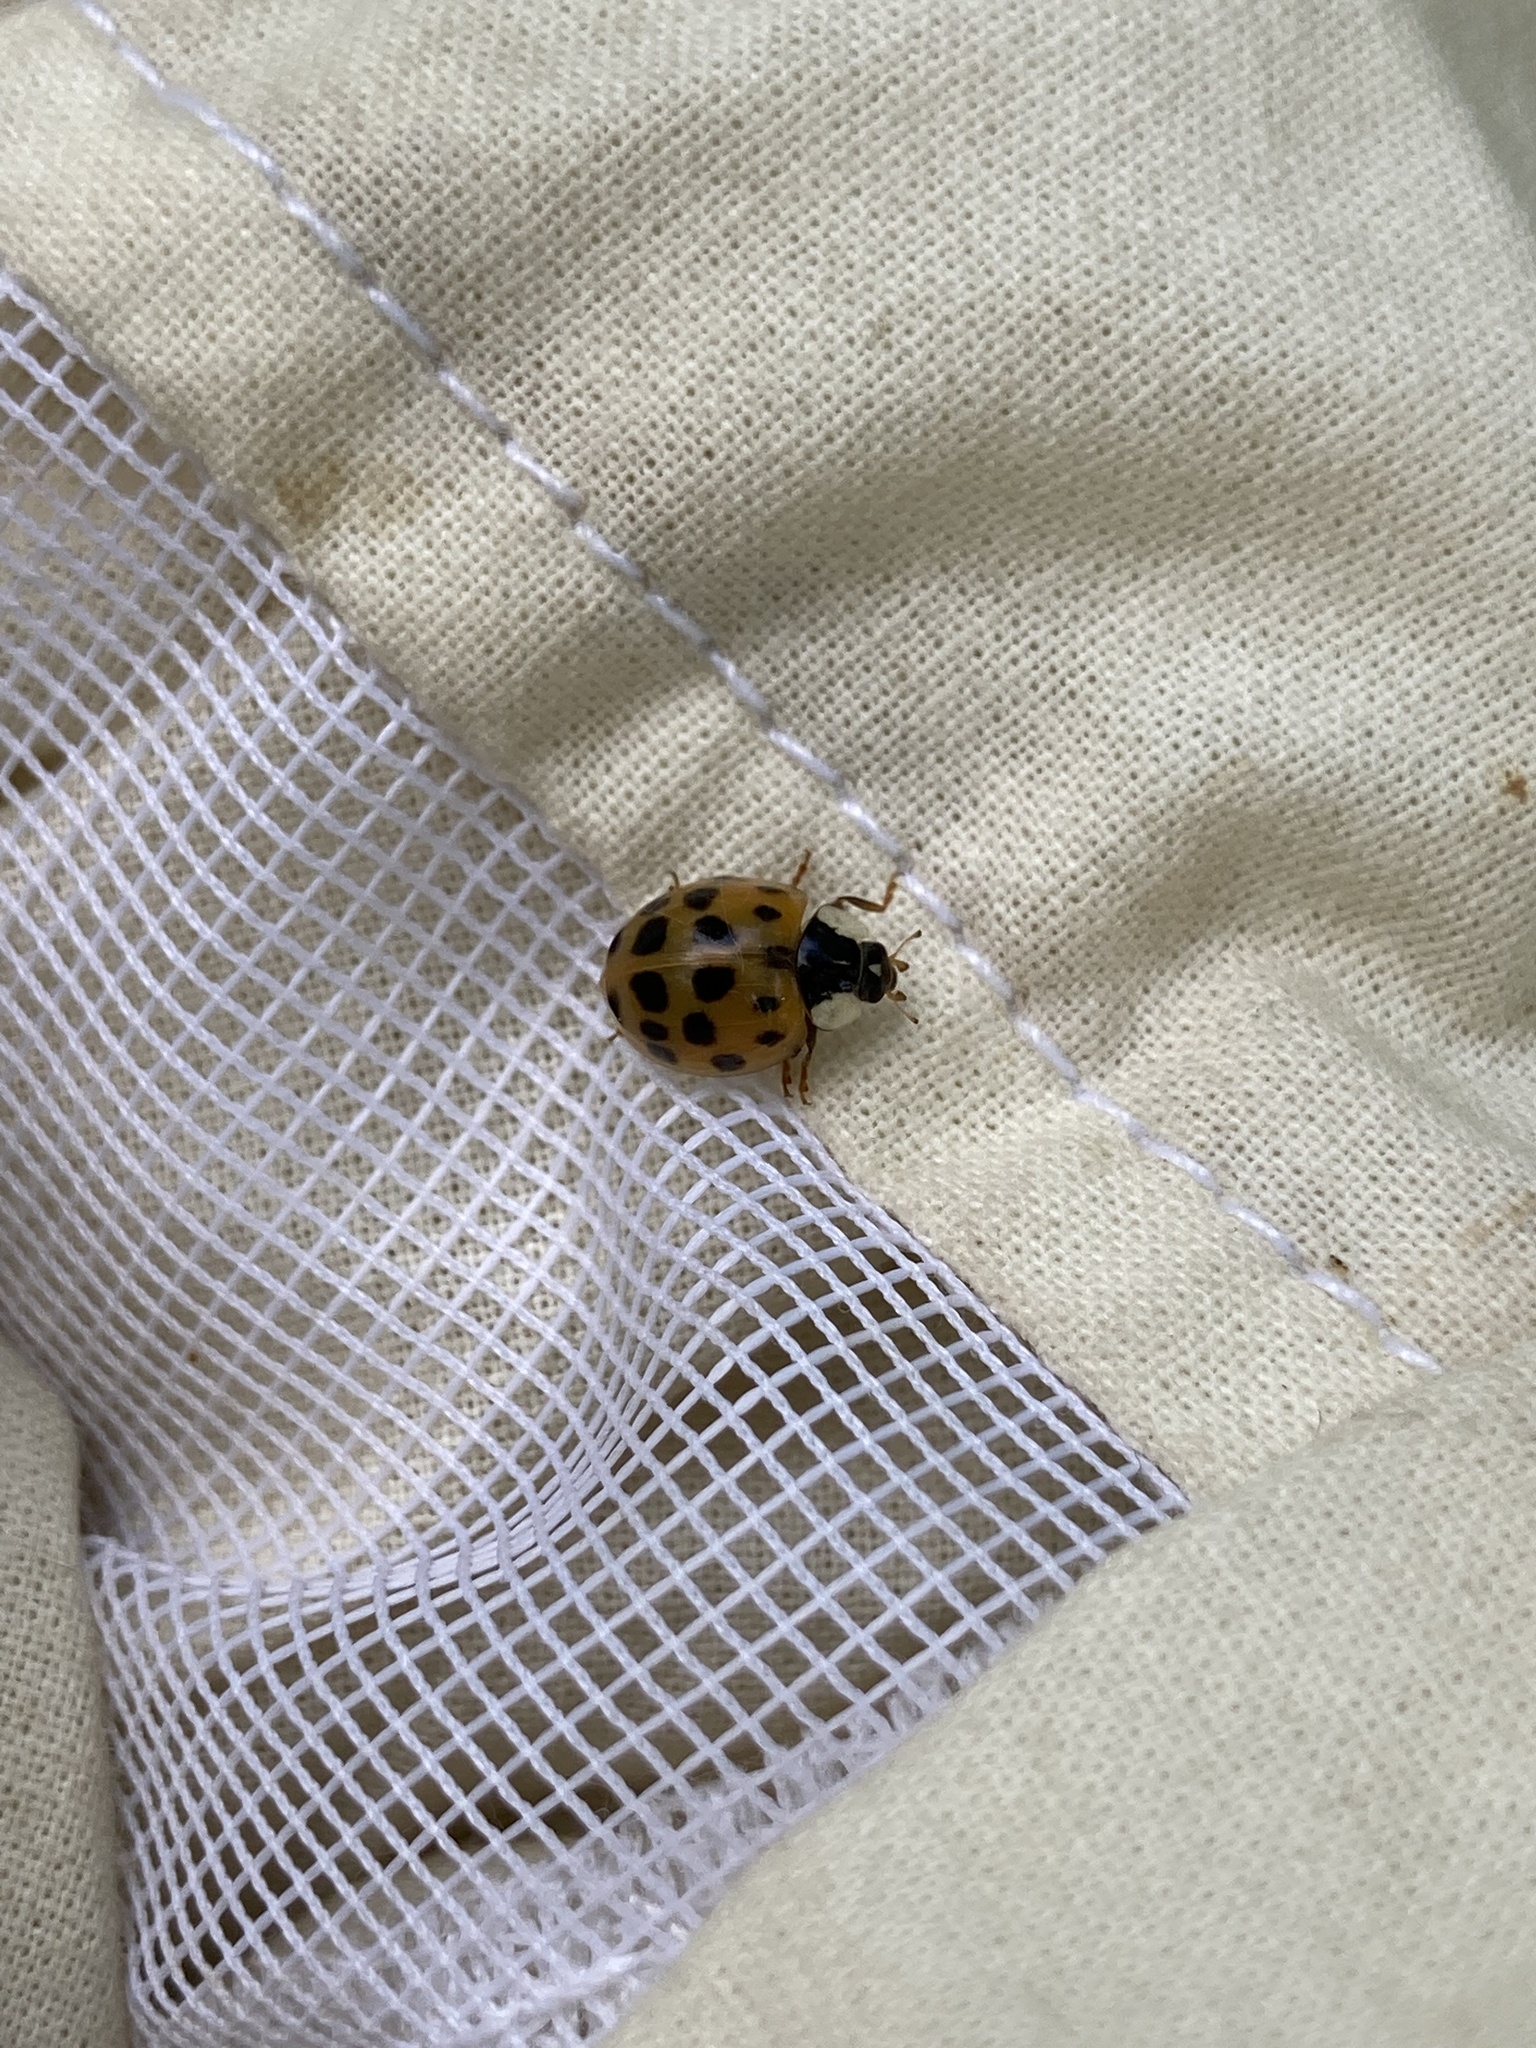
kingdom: Animalia
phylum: Arthropoda
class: Insecta
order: Coleoptera
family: Coccinellidae
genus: Harmonia
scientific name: Harmonia axyridis
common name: Harlequin ladybird
